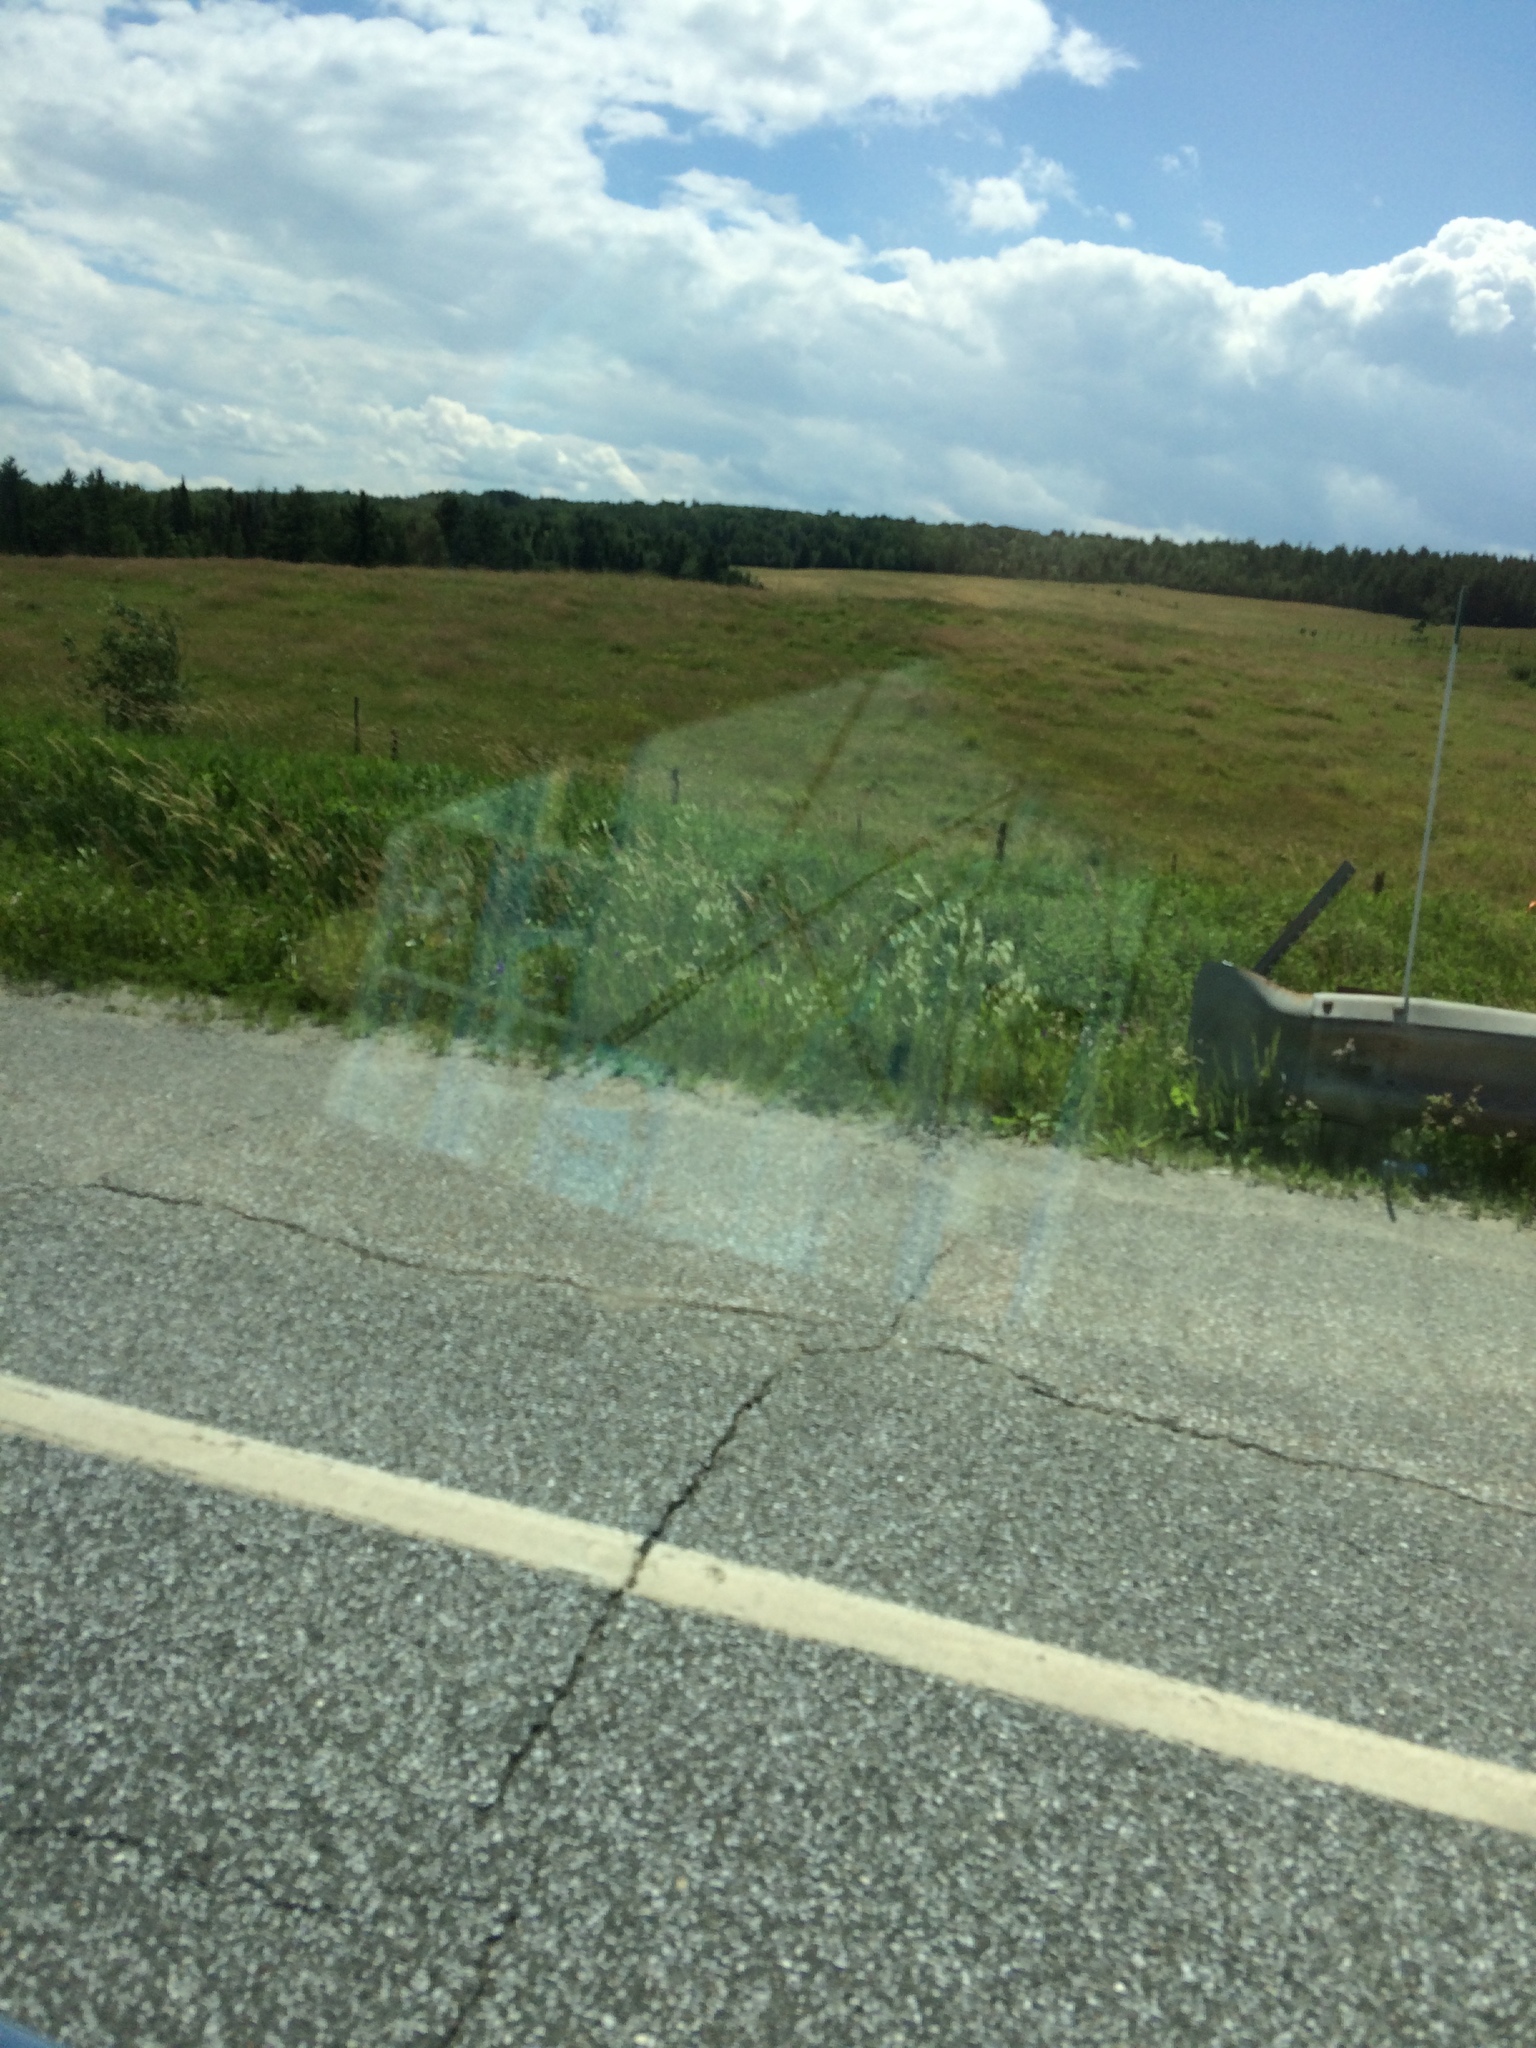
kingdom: Plantae
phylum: Tracheophyta
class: Magnoliopsida
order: Fabales
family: Fabaceae
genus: Melilotus
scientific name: Melilotus albus
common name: White melilot
